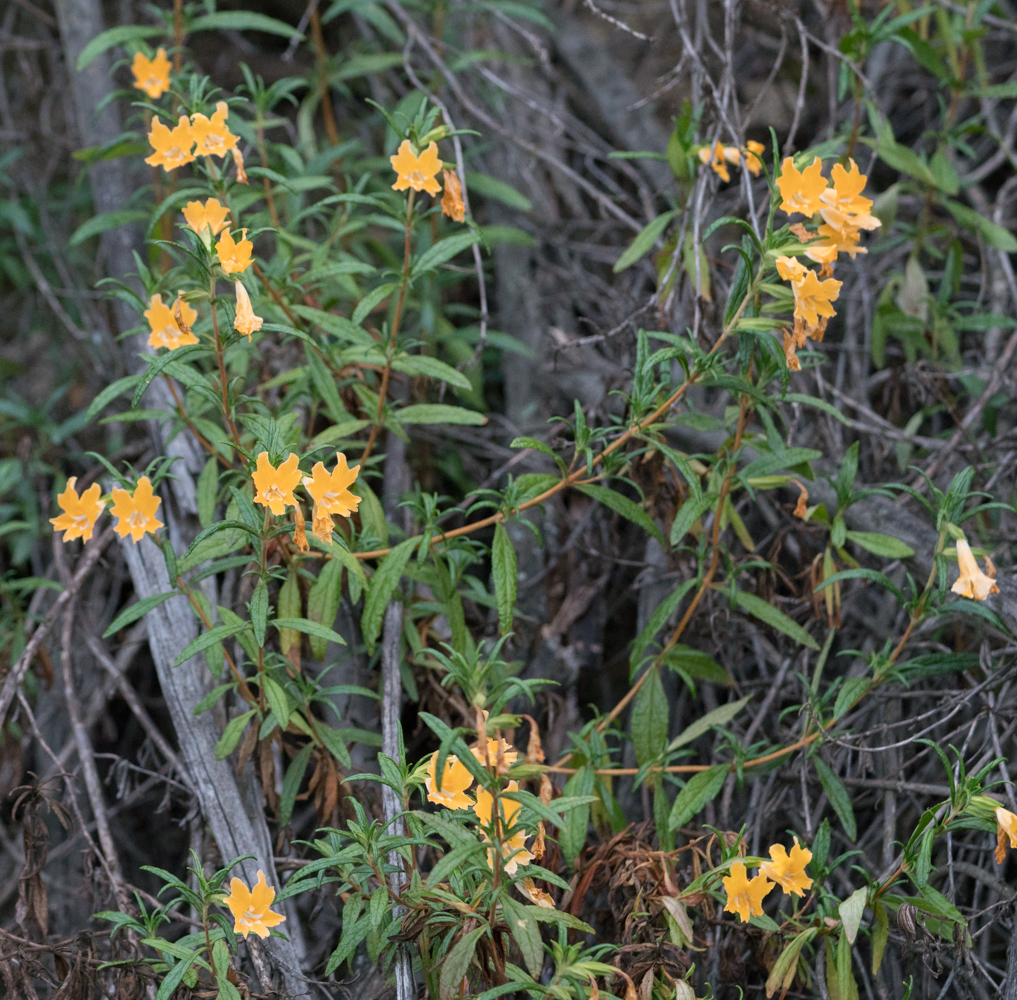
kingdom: Plantae
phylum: Tracheophyta
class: Magnoliopsida
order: Lamiales
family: Phrymaceae
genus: Diplacus
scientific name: Diplacus longiflorus
